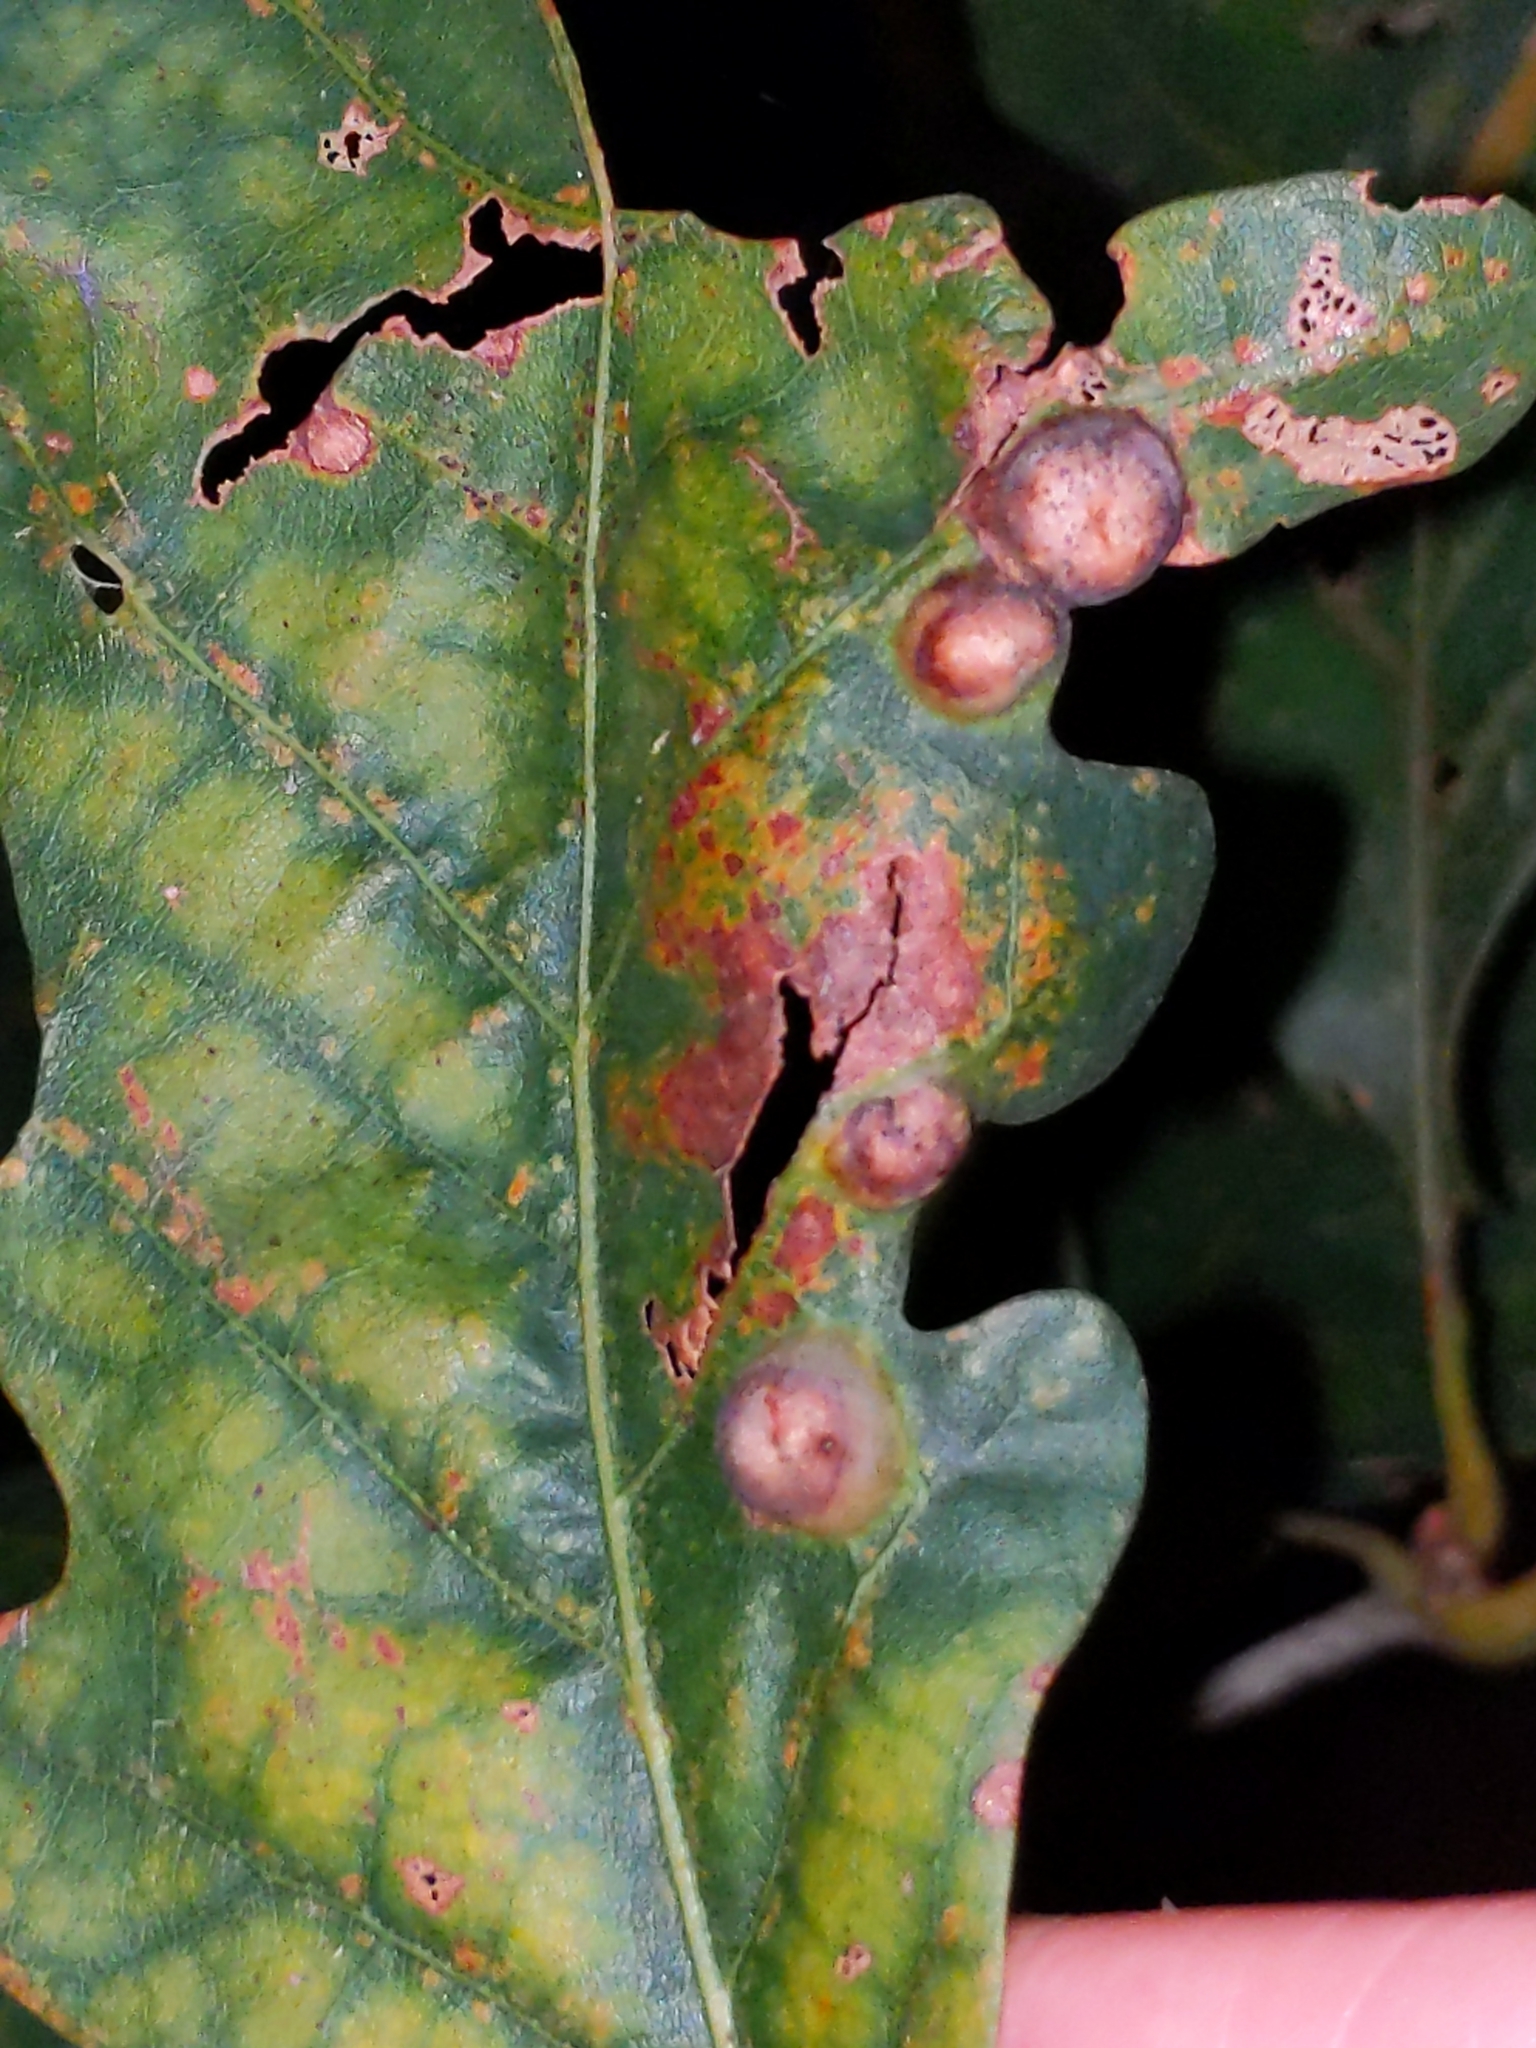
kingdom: Animalia
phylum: Arthropoda
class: Insecta
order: Hymenoptera
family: Cynipidae
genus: Callirhytis
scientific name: Callirhytis
